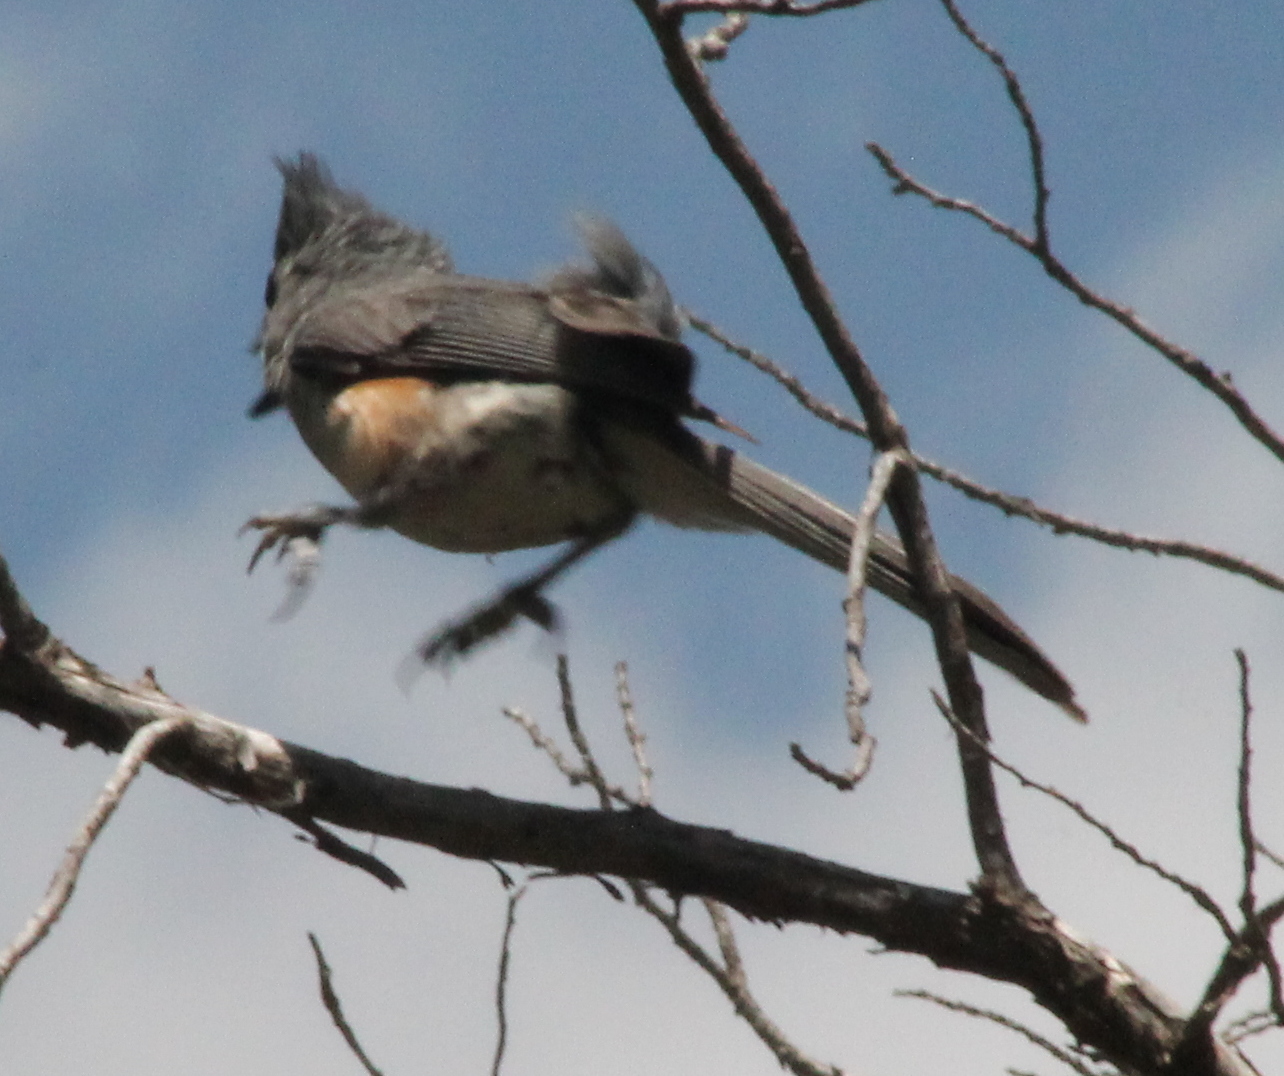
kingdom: Animalia
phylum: Chordata
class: Aves
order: Passeriformes
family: Paridae
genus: Baeolophus
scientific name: Baeolophus bicolor
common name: Tufted titmouse
